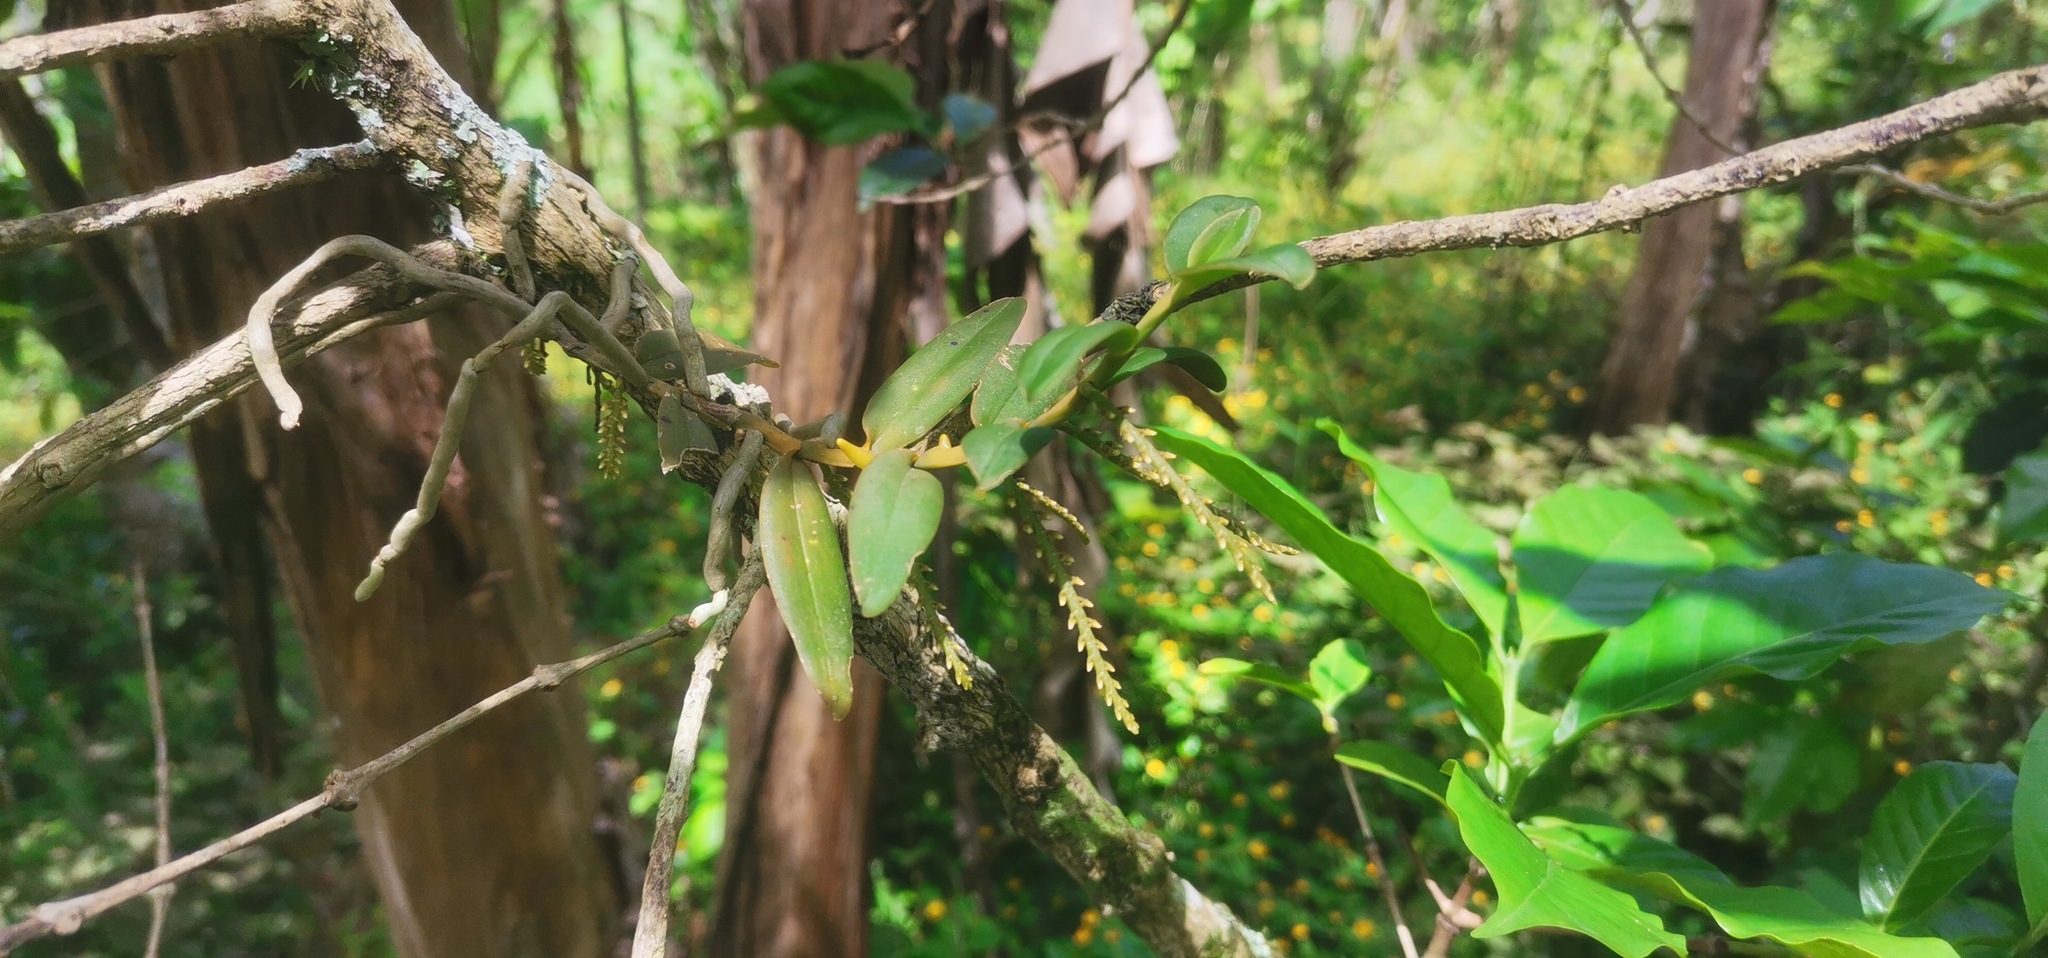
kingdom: Plantae
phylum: Tracheophyta
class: Liliopsida
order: Asparagales
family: Orchidaceae
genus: Campylocentrum
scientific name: Campylocentrum micranthum
